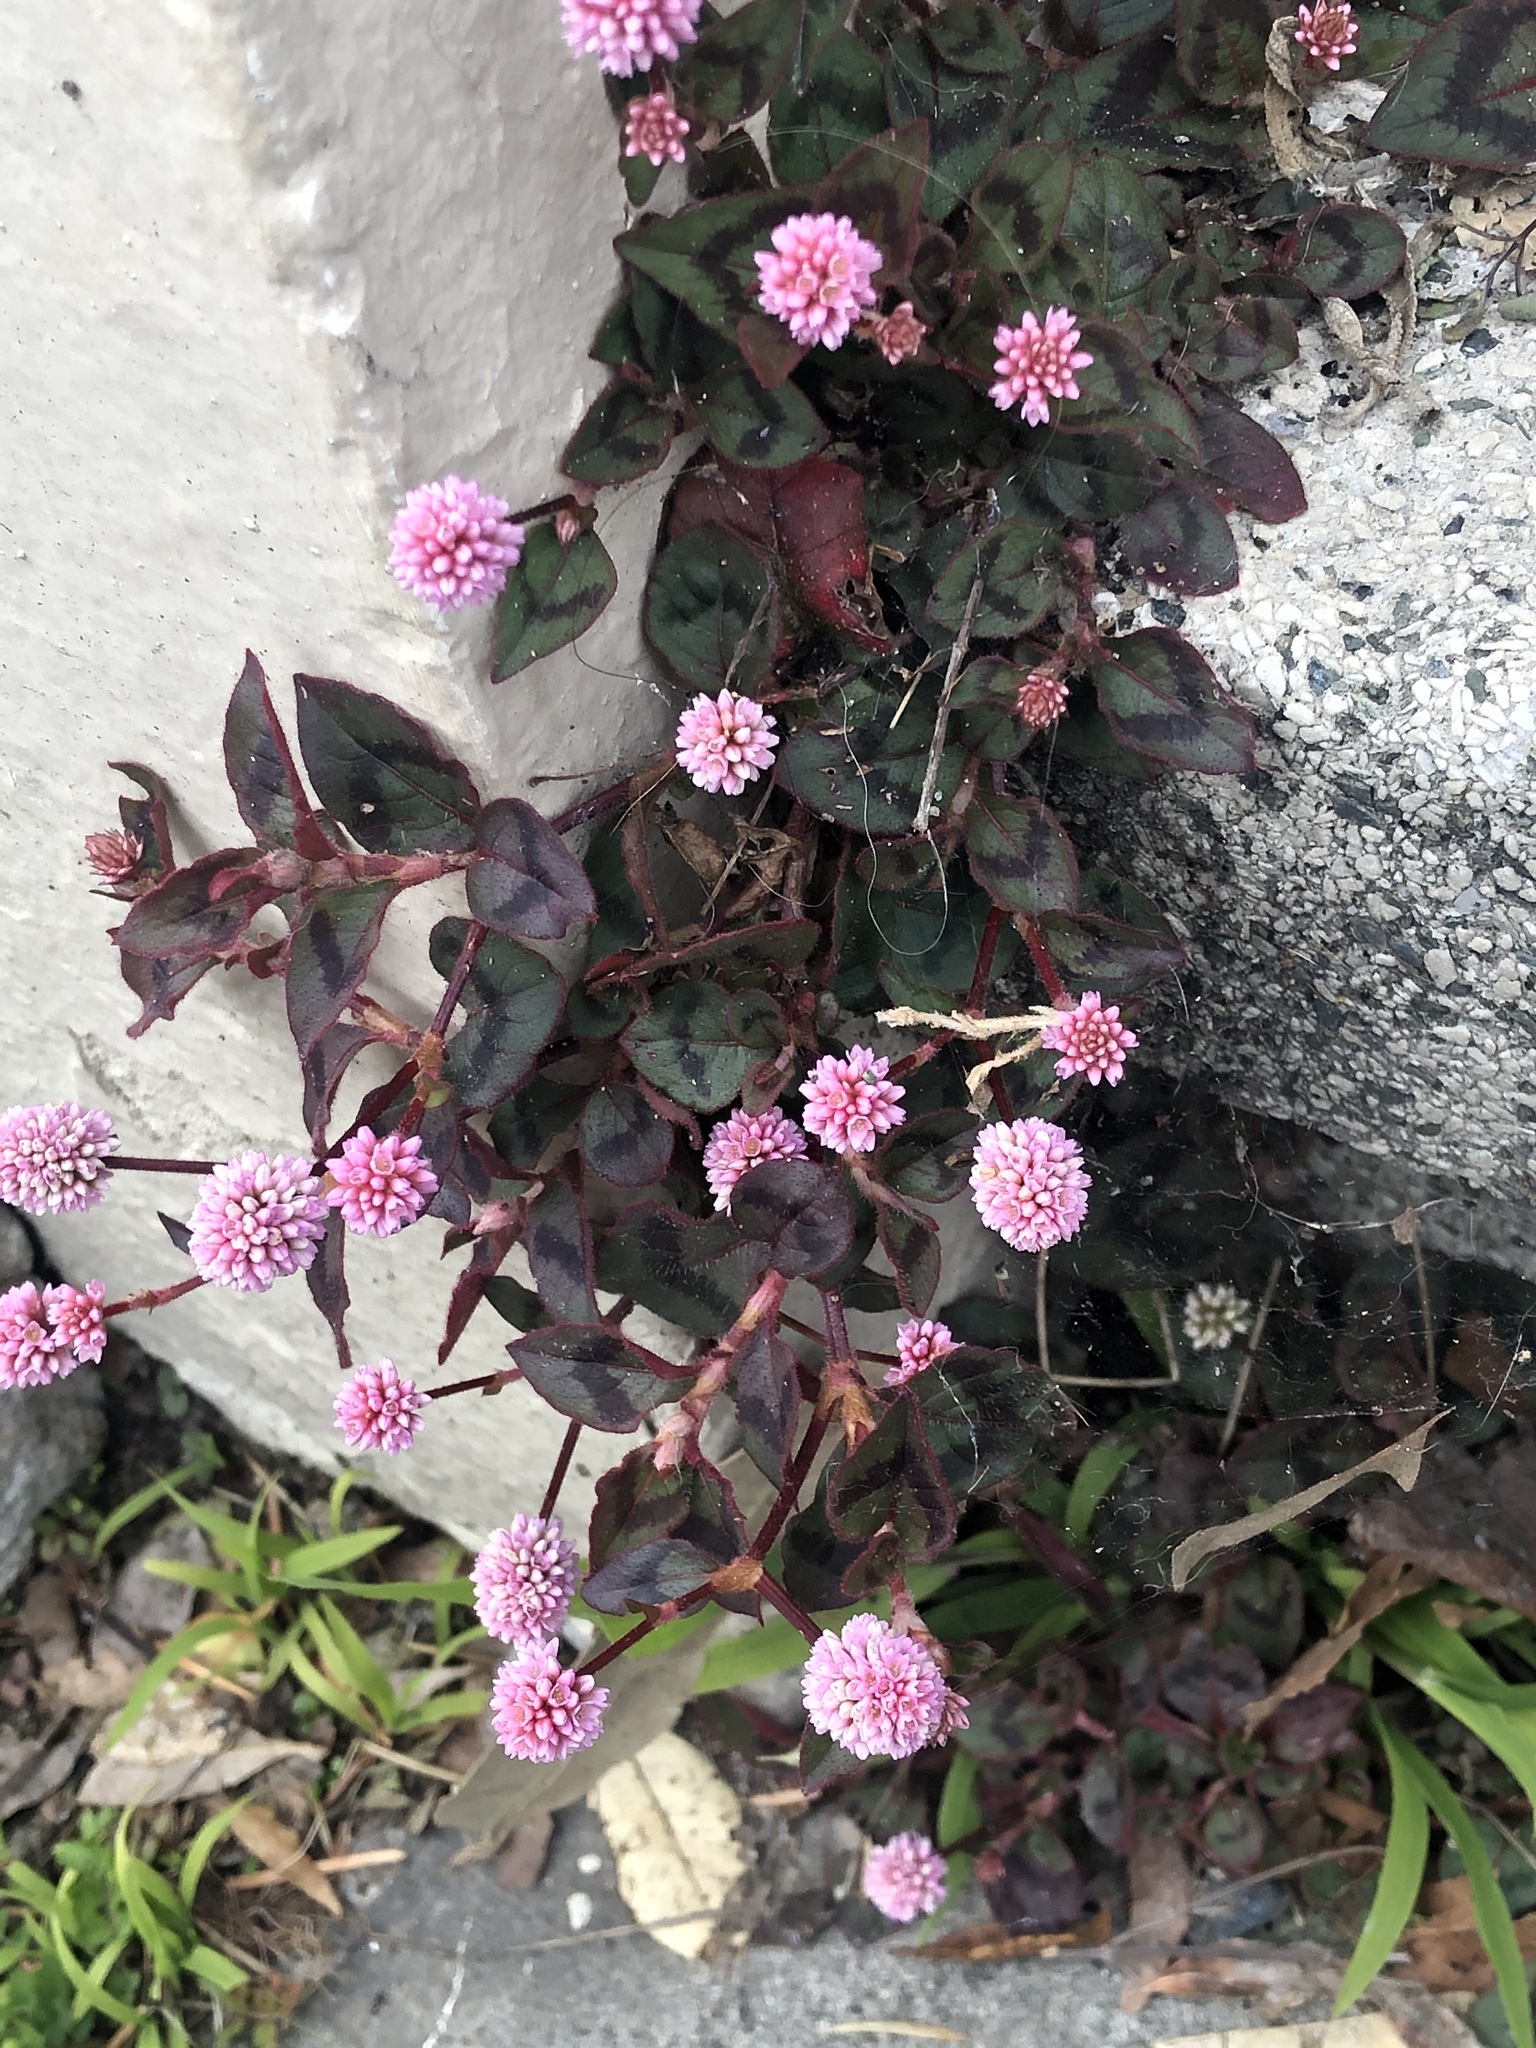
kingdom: Plantae
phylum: Tracheophyta
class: Magnoliopsida
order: Caryophyllales
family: Polygonaceae
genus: Persicaria
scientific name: Persicaria capitata
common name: Pinkhead smartweed
